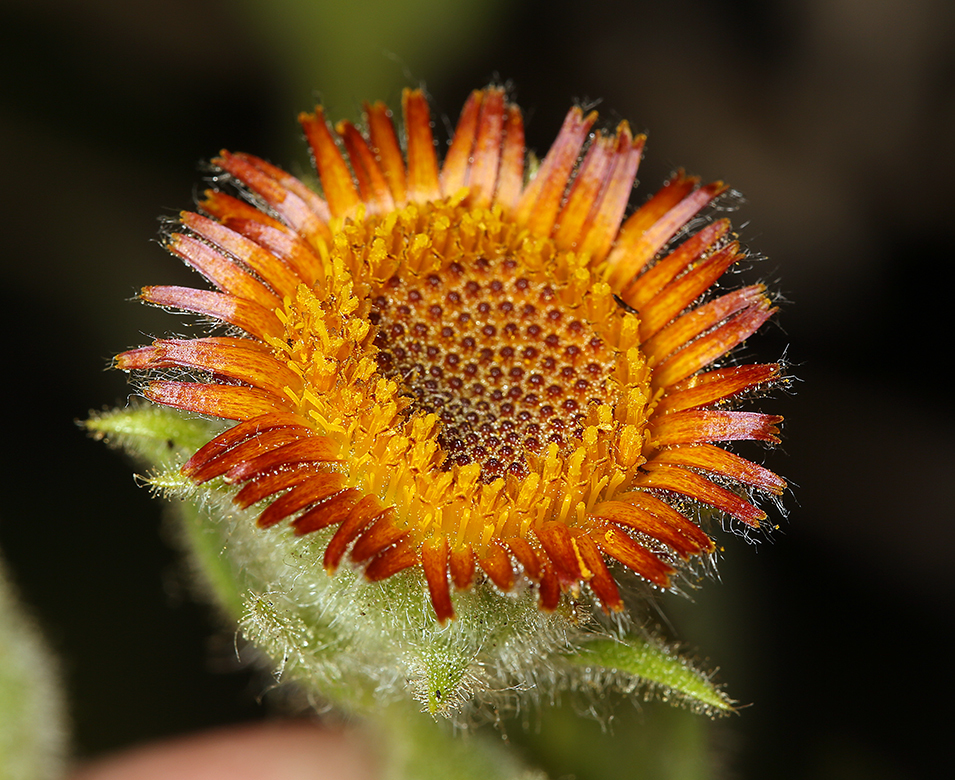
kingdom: Plantae
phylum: Tracheophyta
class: Magnoliopsida
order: Asterales
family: Asteraceae
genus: Hulsea
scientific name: Hulsea heterochroma
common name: Redray alpinegold
